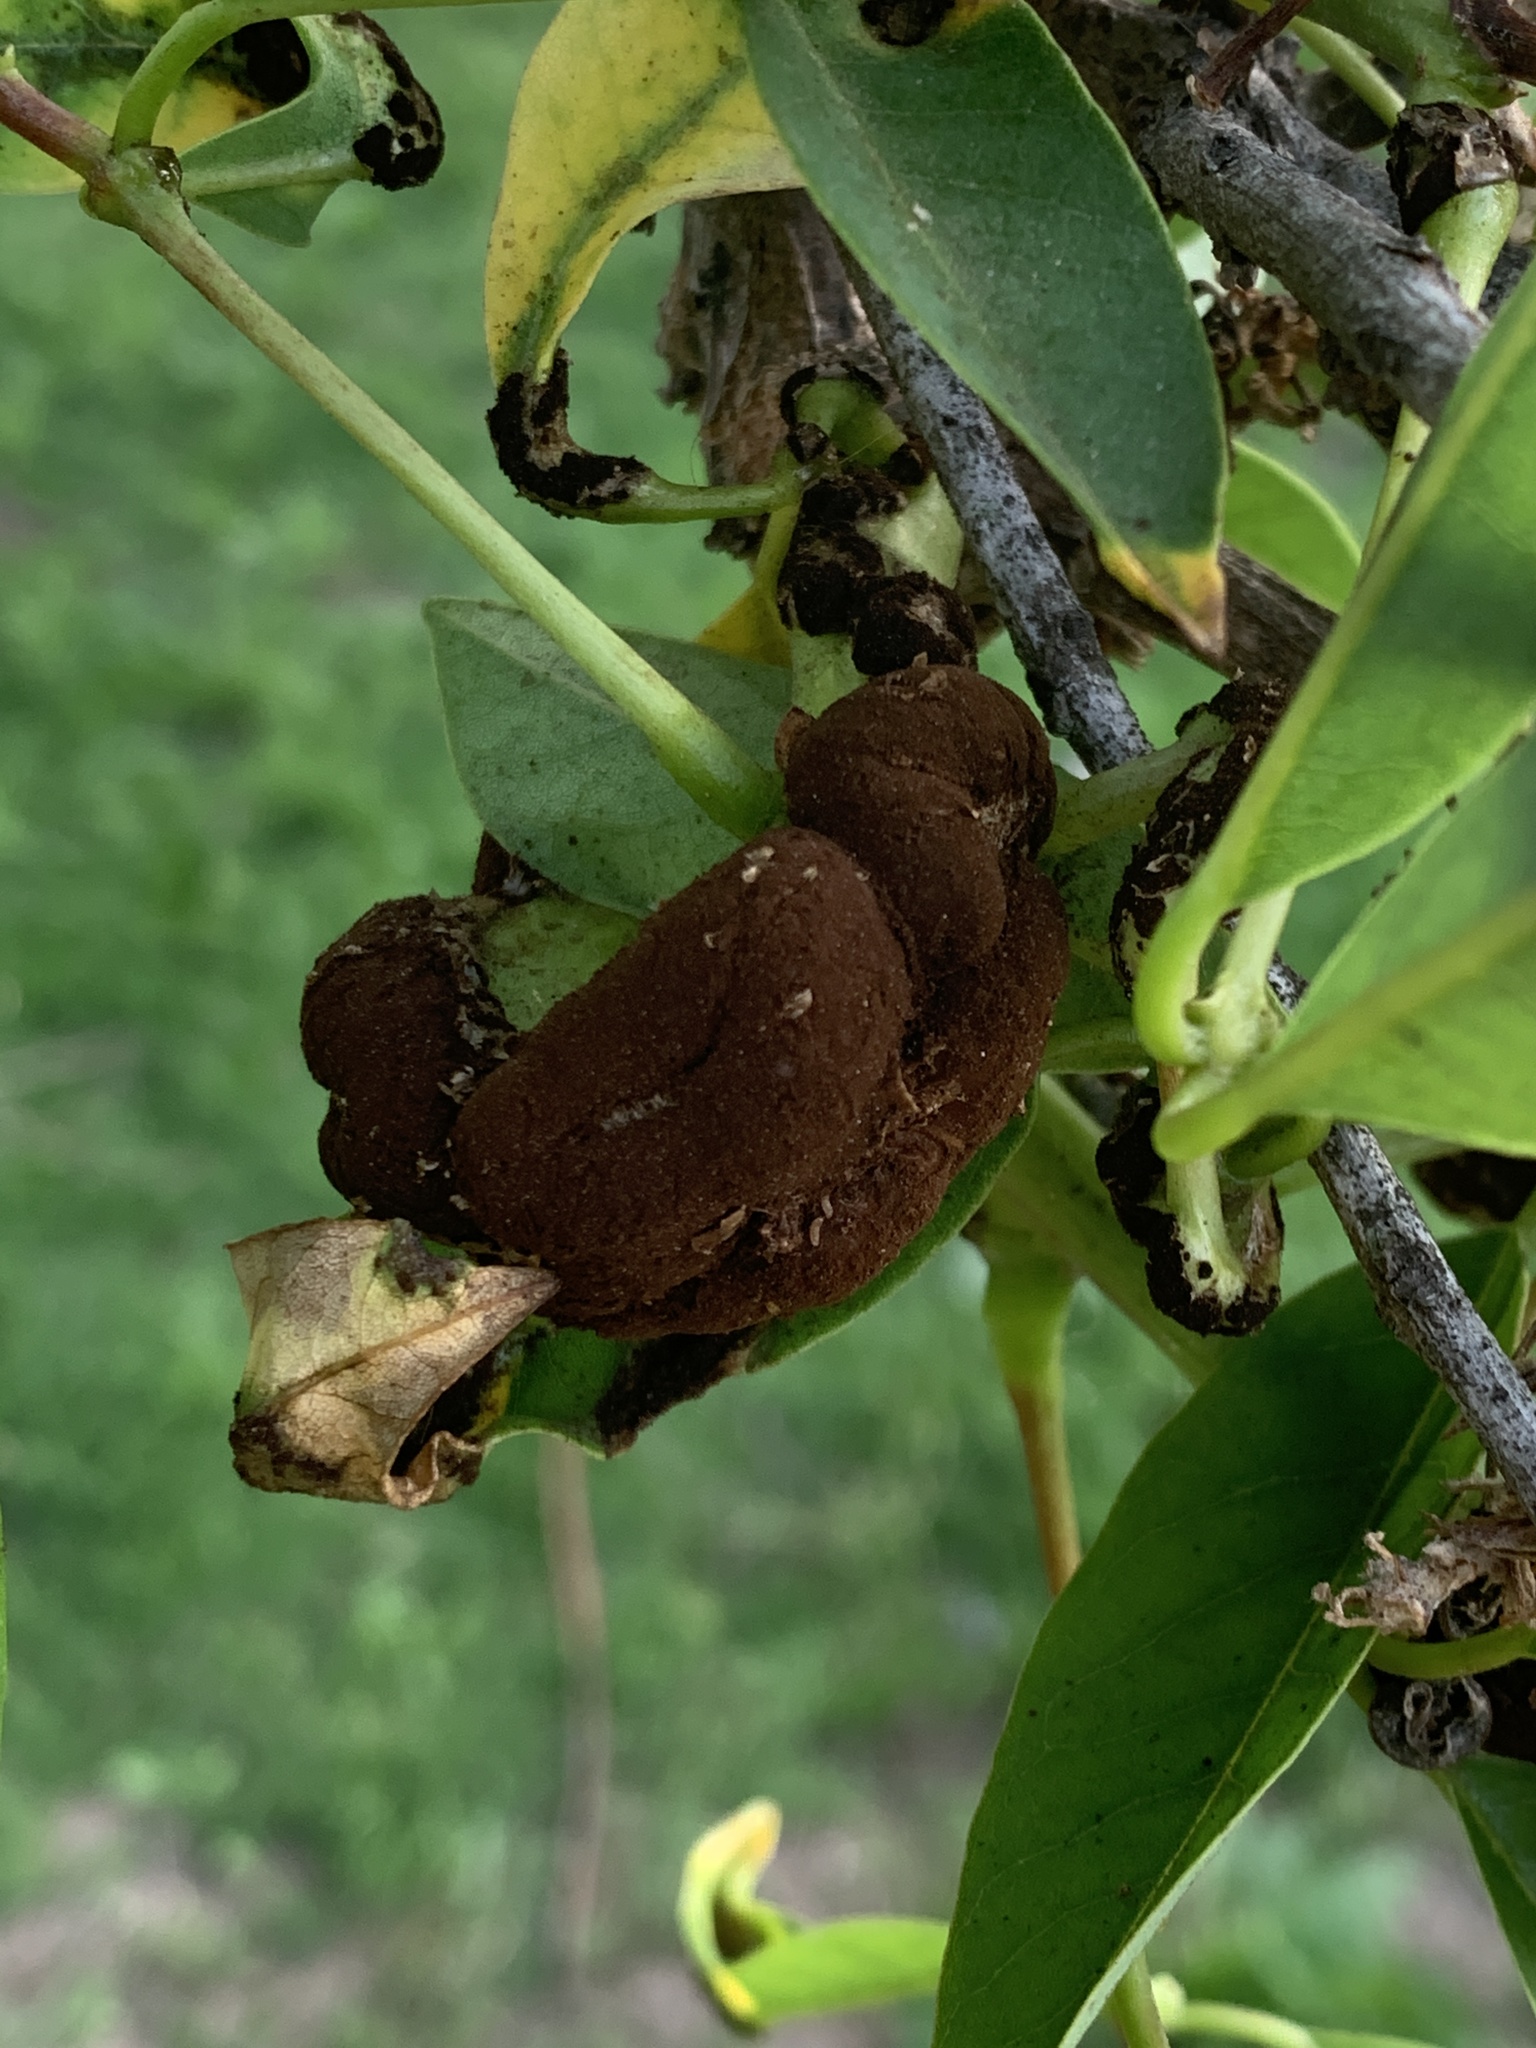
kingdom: Fungi
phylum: Basidiomycota
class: Pucciniomycetes
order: Pucciniales
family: Raveneliaceae
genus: Ravenelia
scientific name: Ravenelia platensis
